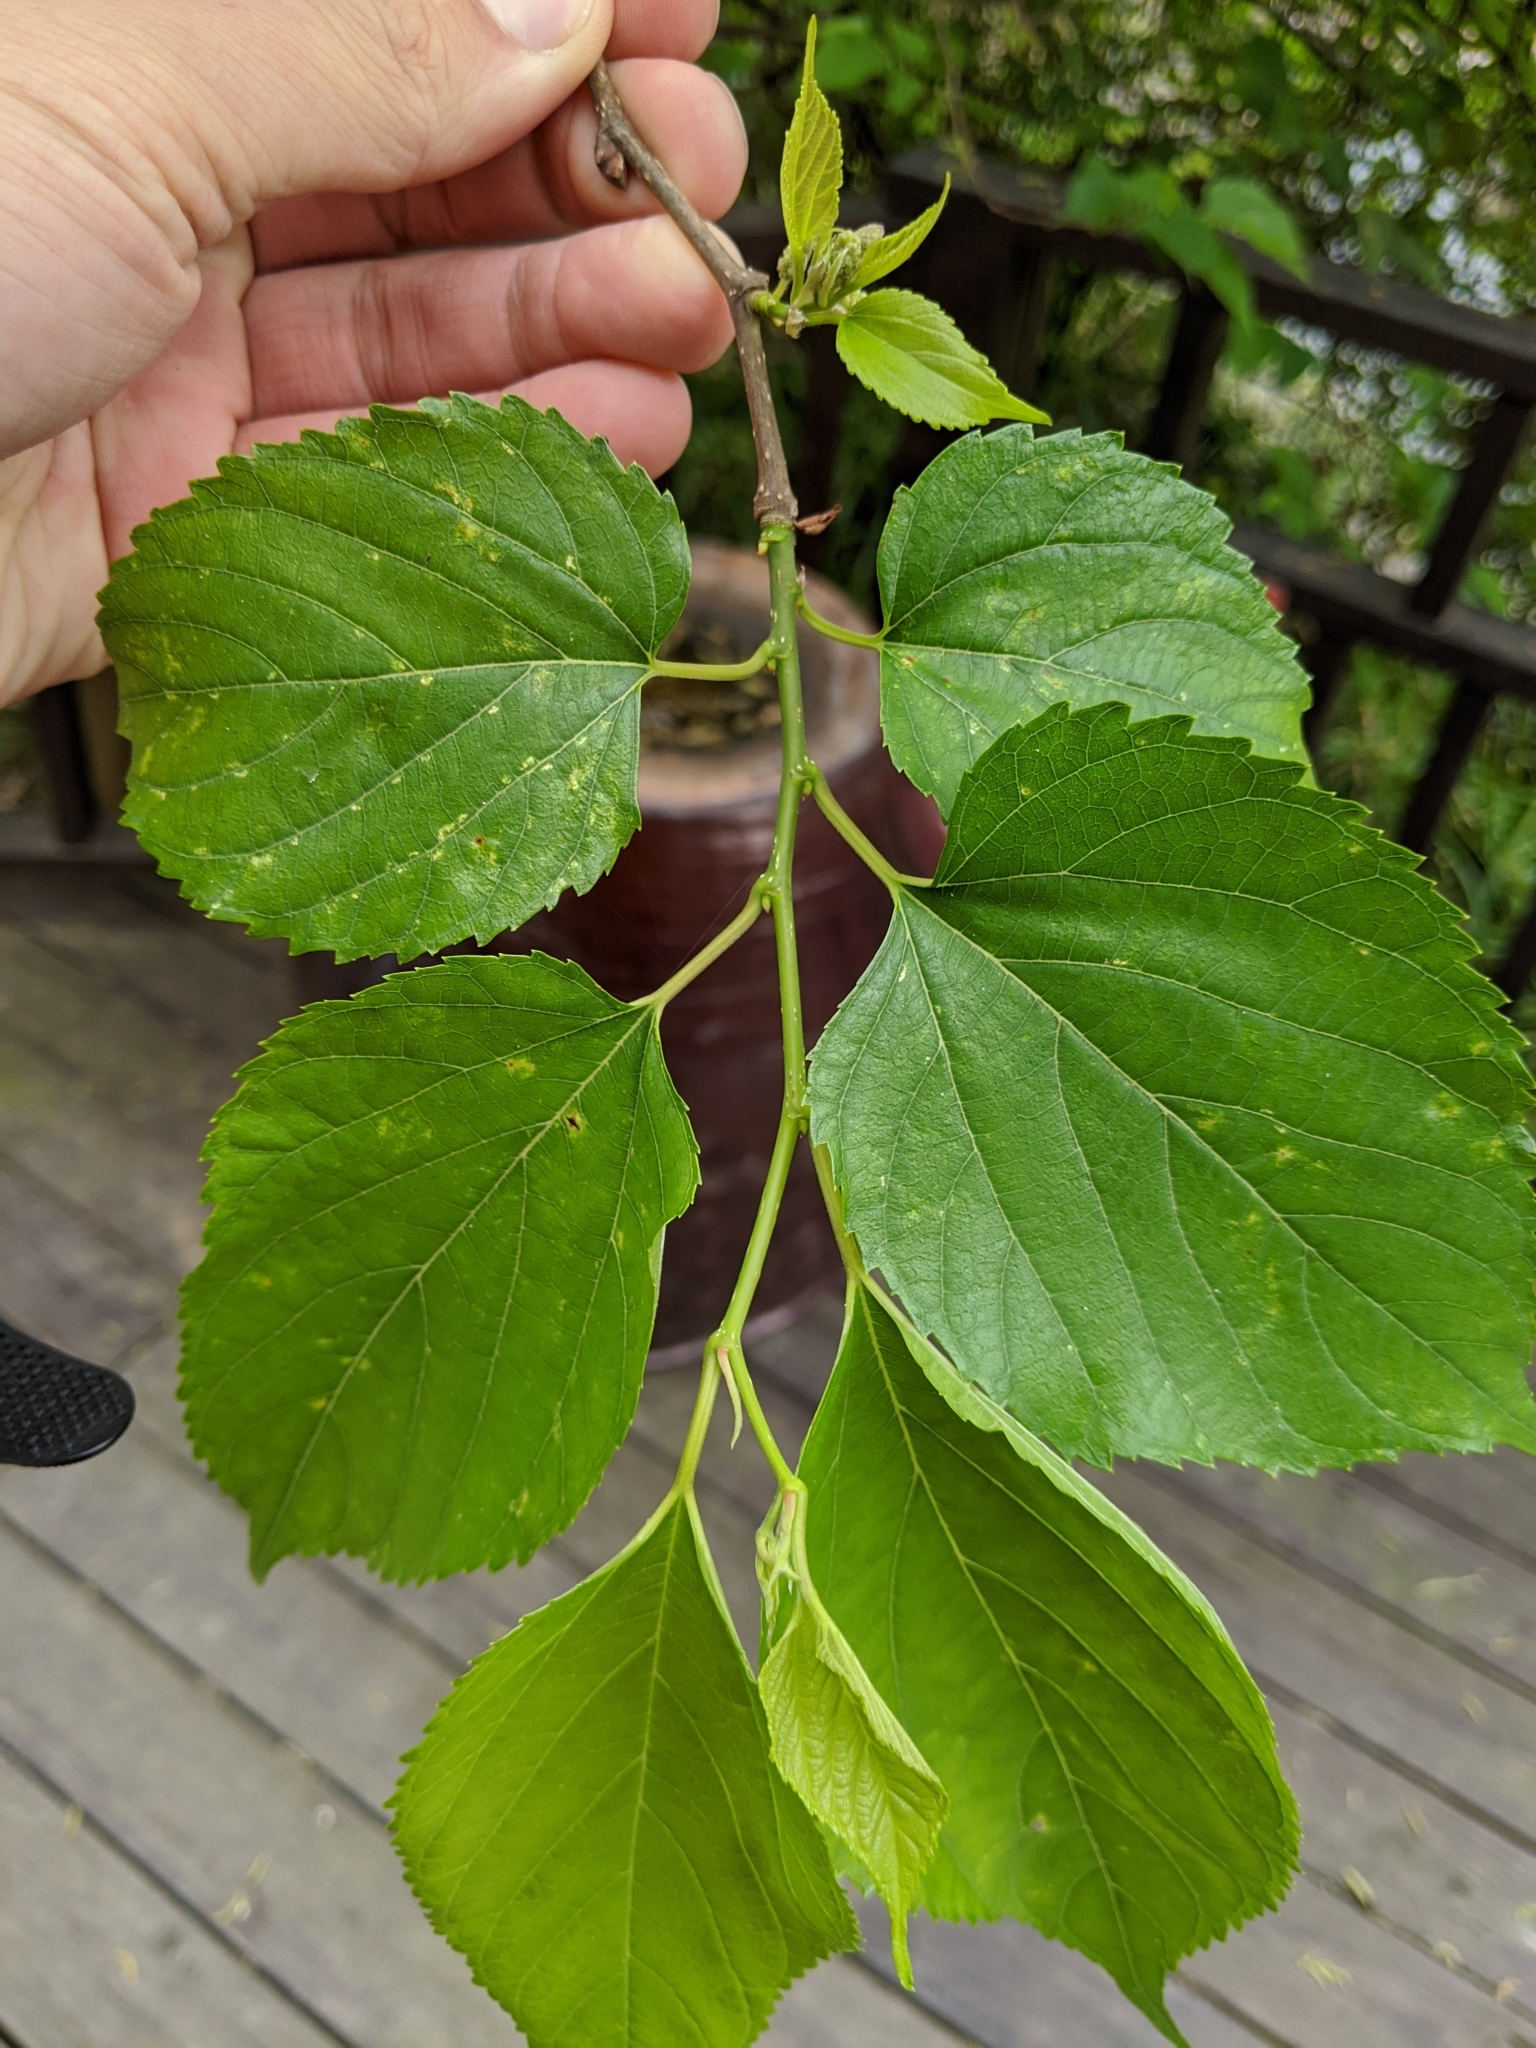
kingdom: Plantae
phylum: Tracheophyta
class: Magnoliopsida
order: Rosales
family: Moraceae
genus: Morus
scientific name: Morus indica
